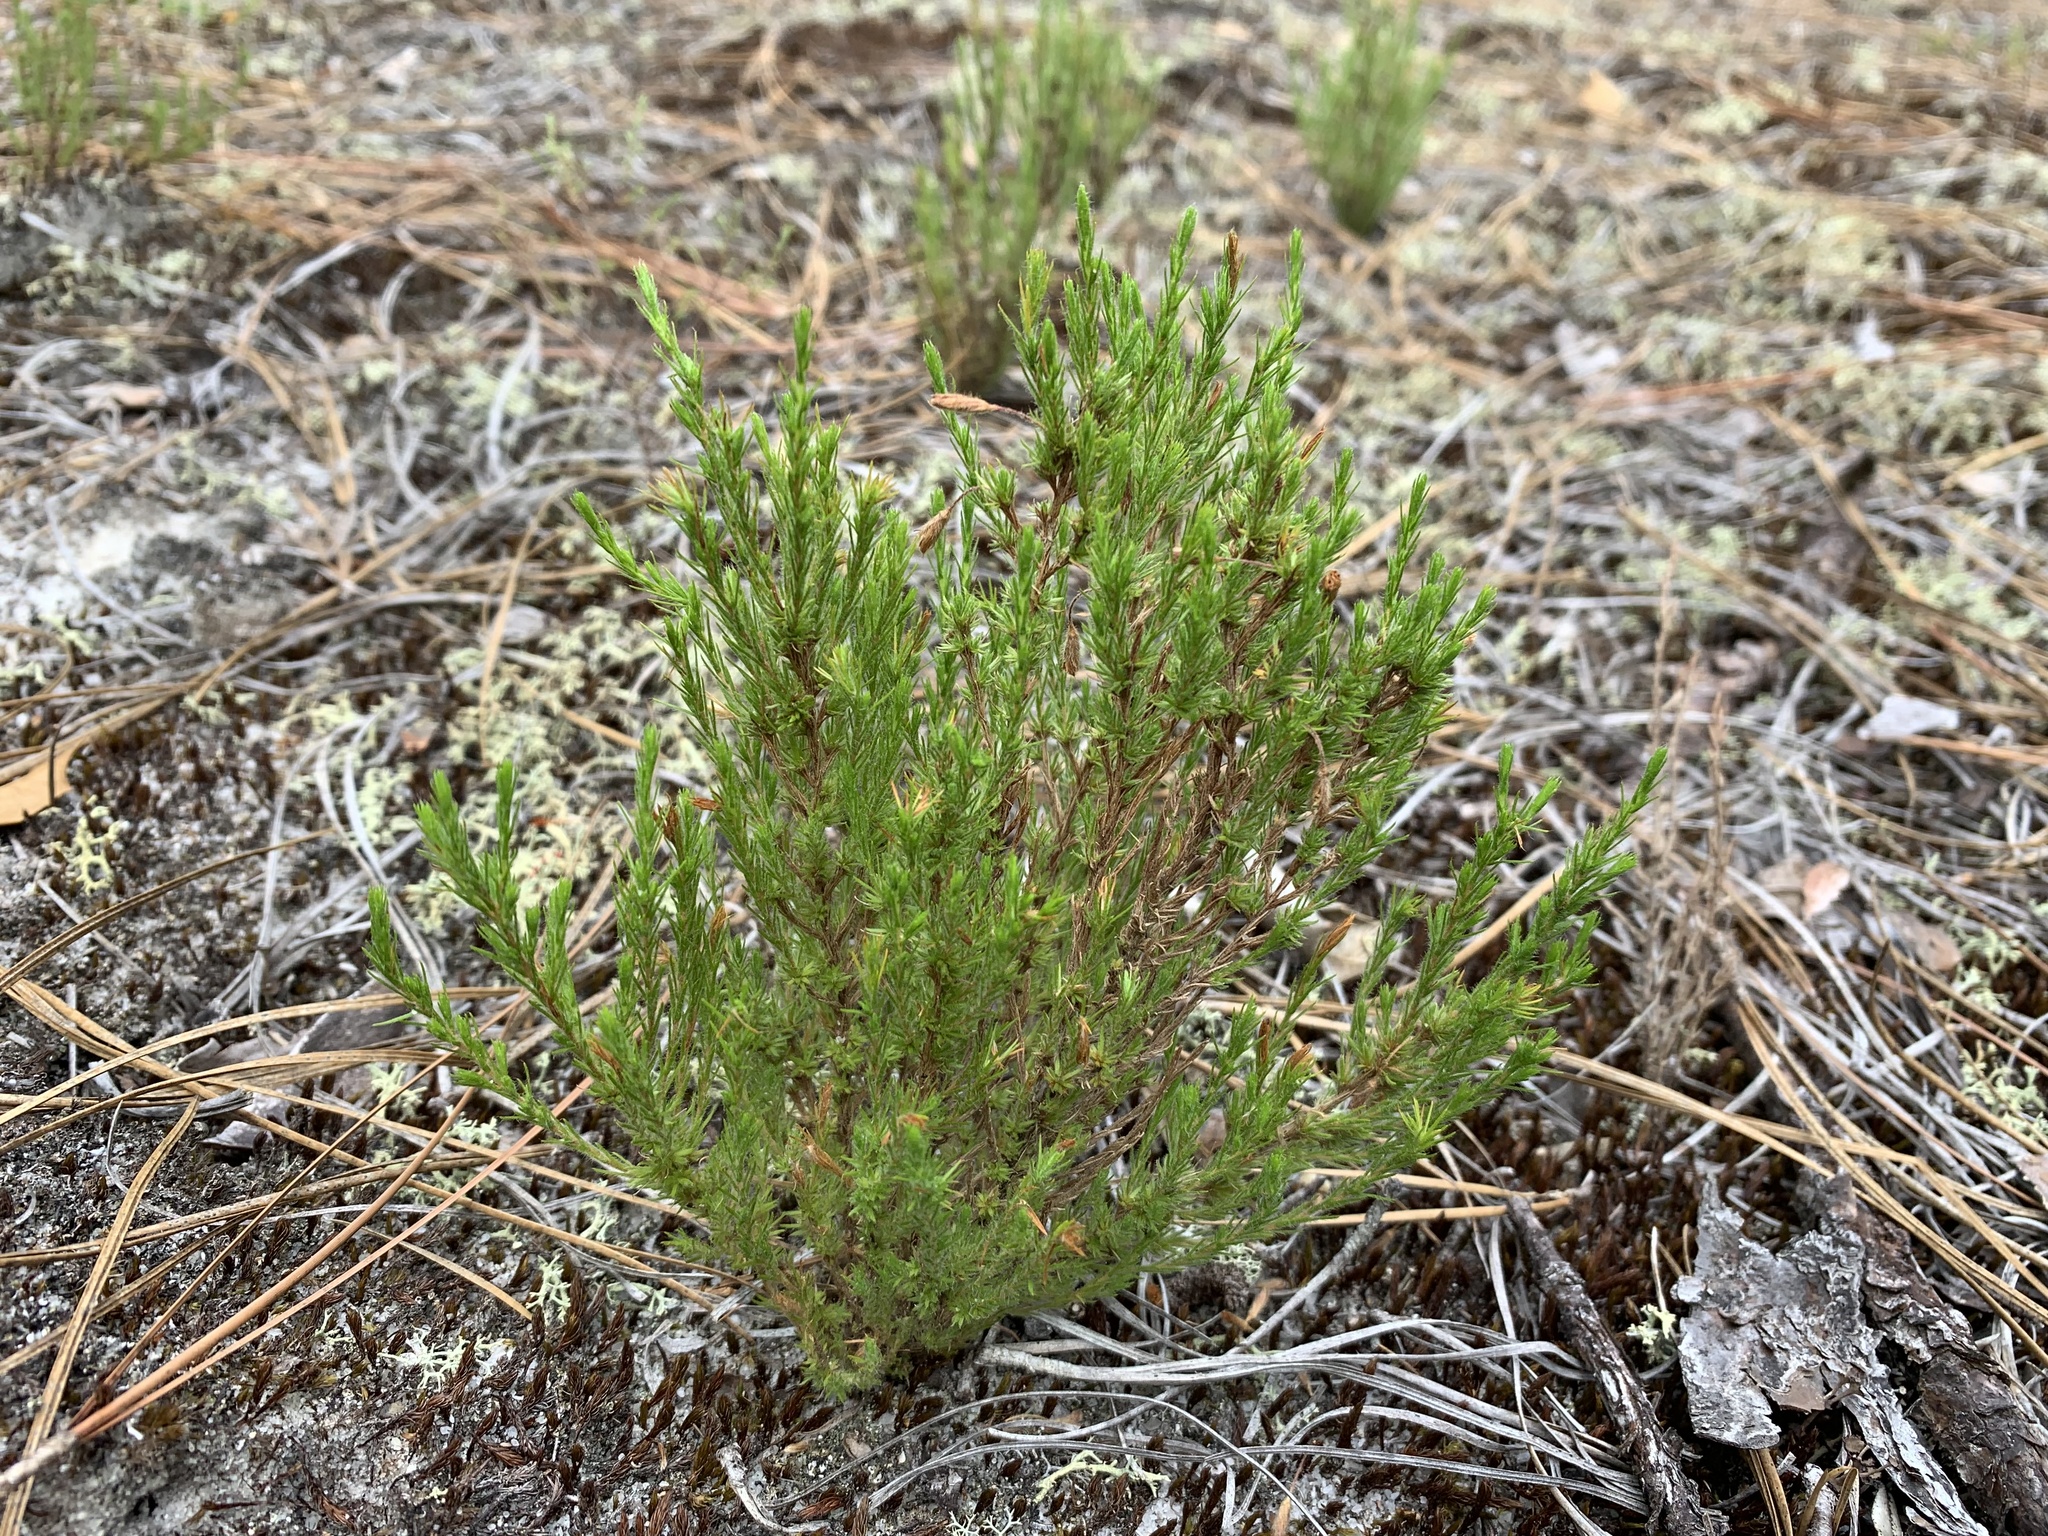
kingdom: Plantae
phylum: Tracheophyta
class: Magnoliopsida
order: Malvales
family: Cistaceae
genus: Hudsonia
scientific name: Hudsonia ericoides
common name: Golden-heather
